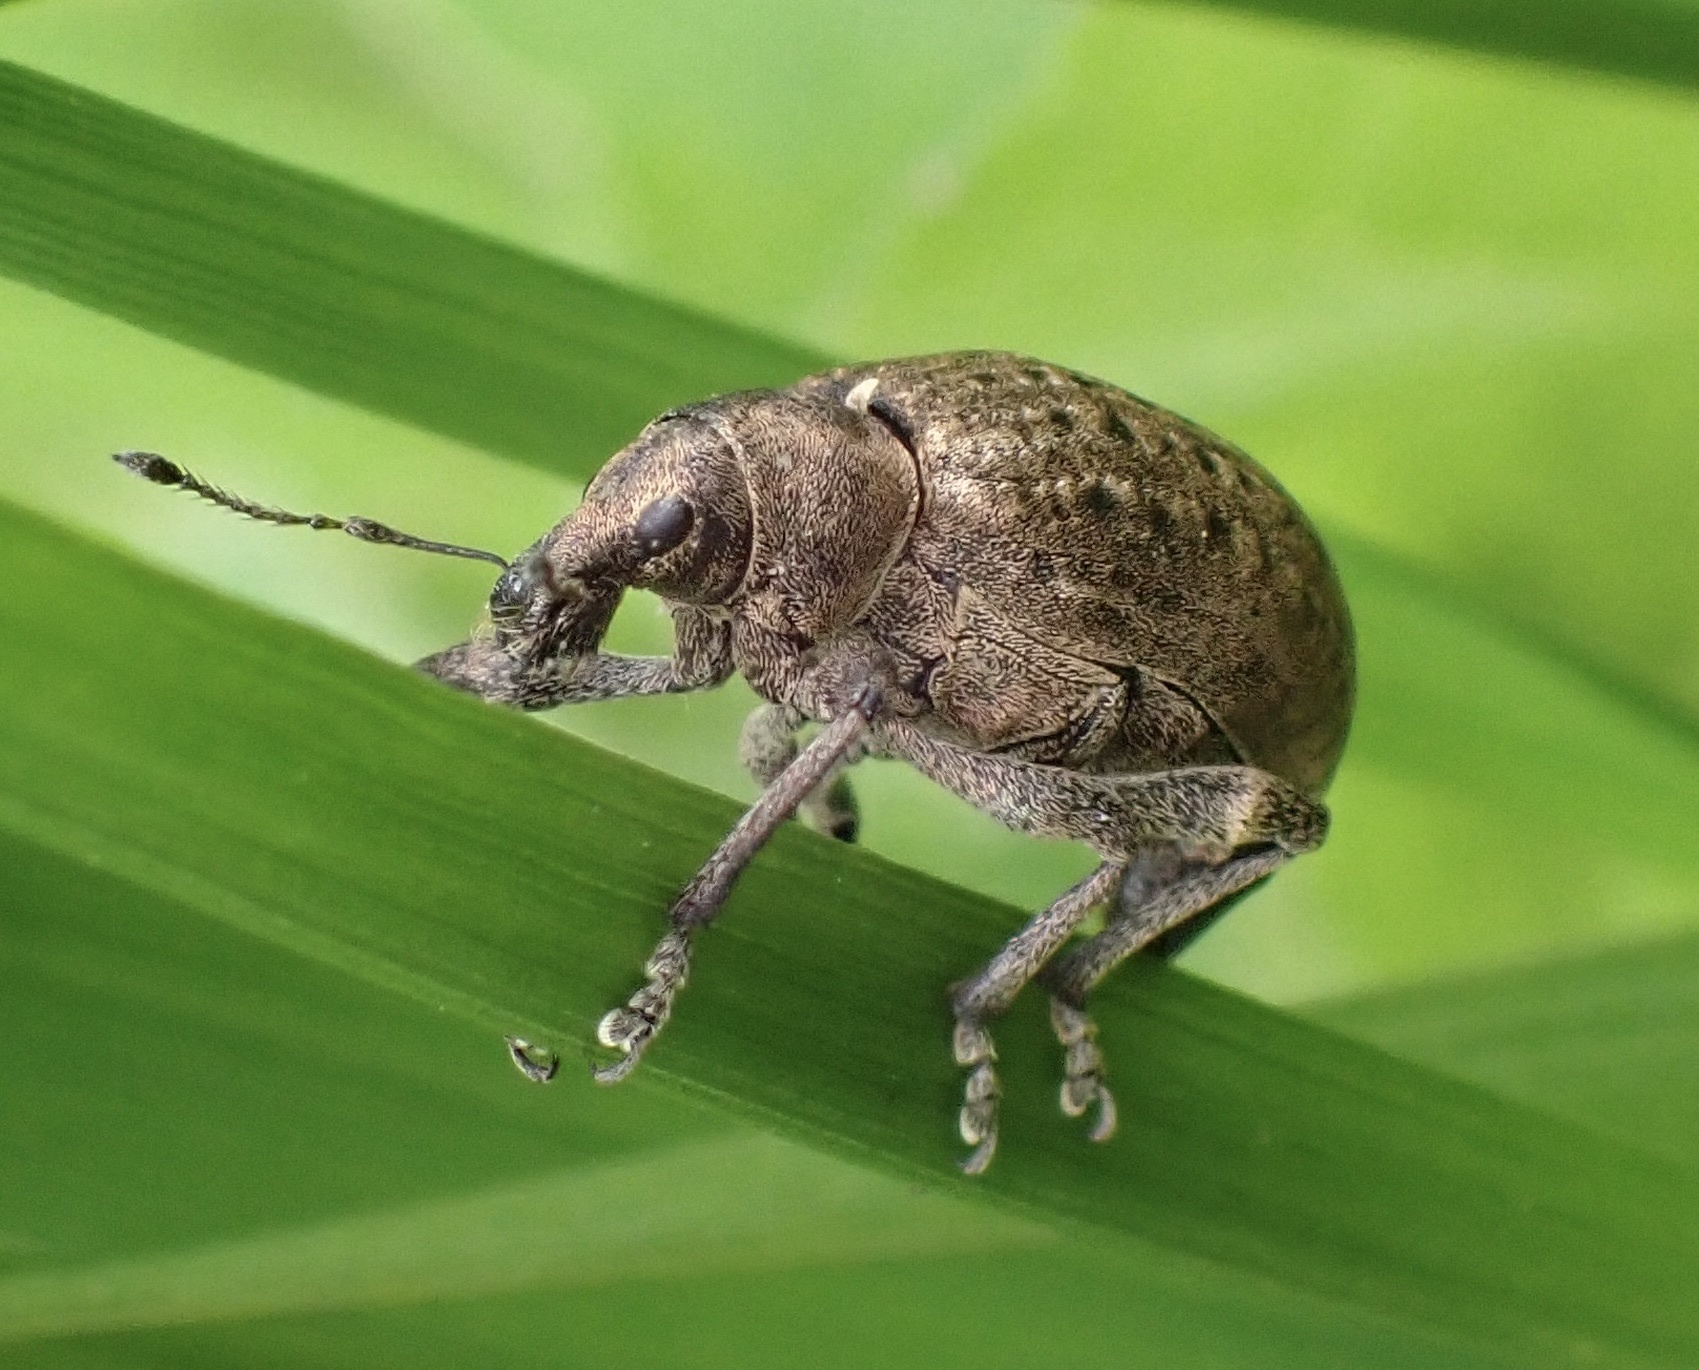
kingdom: Animalia
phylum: Arthropoda
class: Insecta
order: Coleoptera
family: Curculionidae
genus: Liophloeus
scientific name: Liophloeus tessulatus
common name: Weevil
